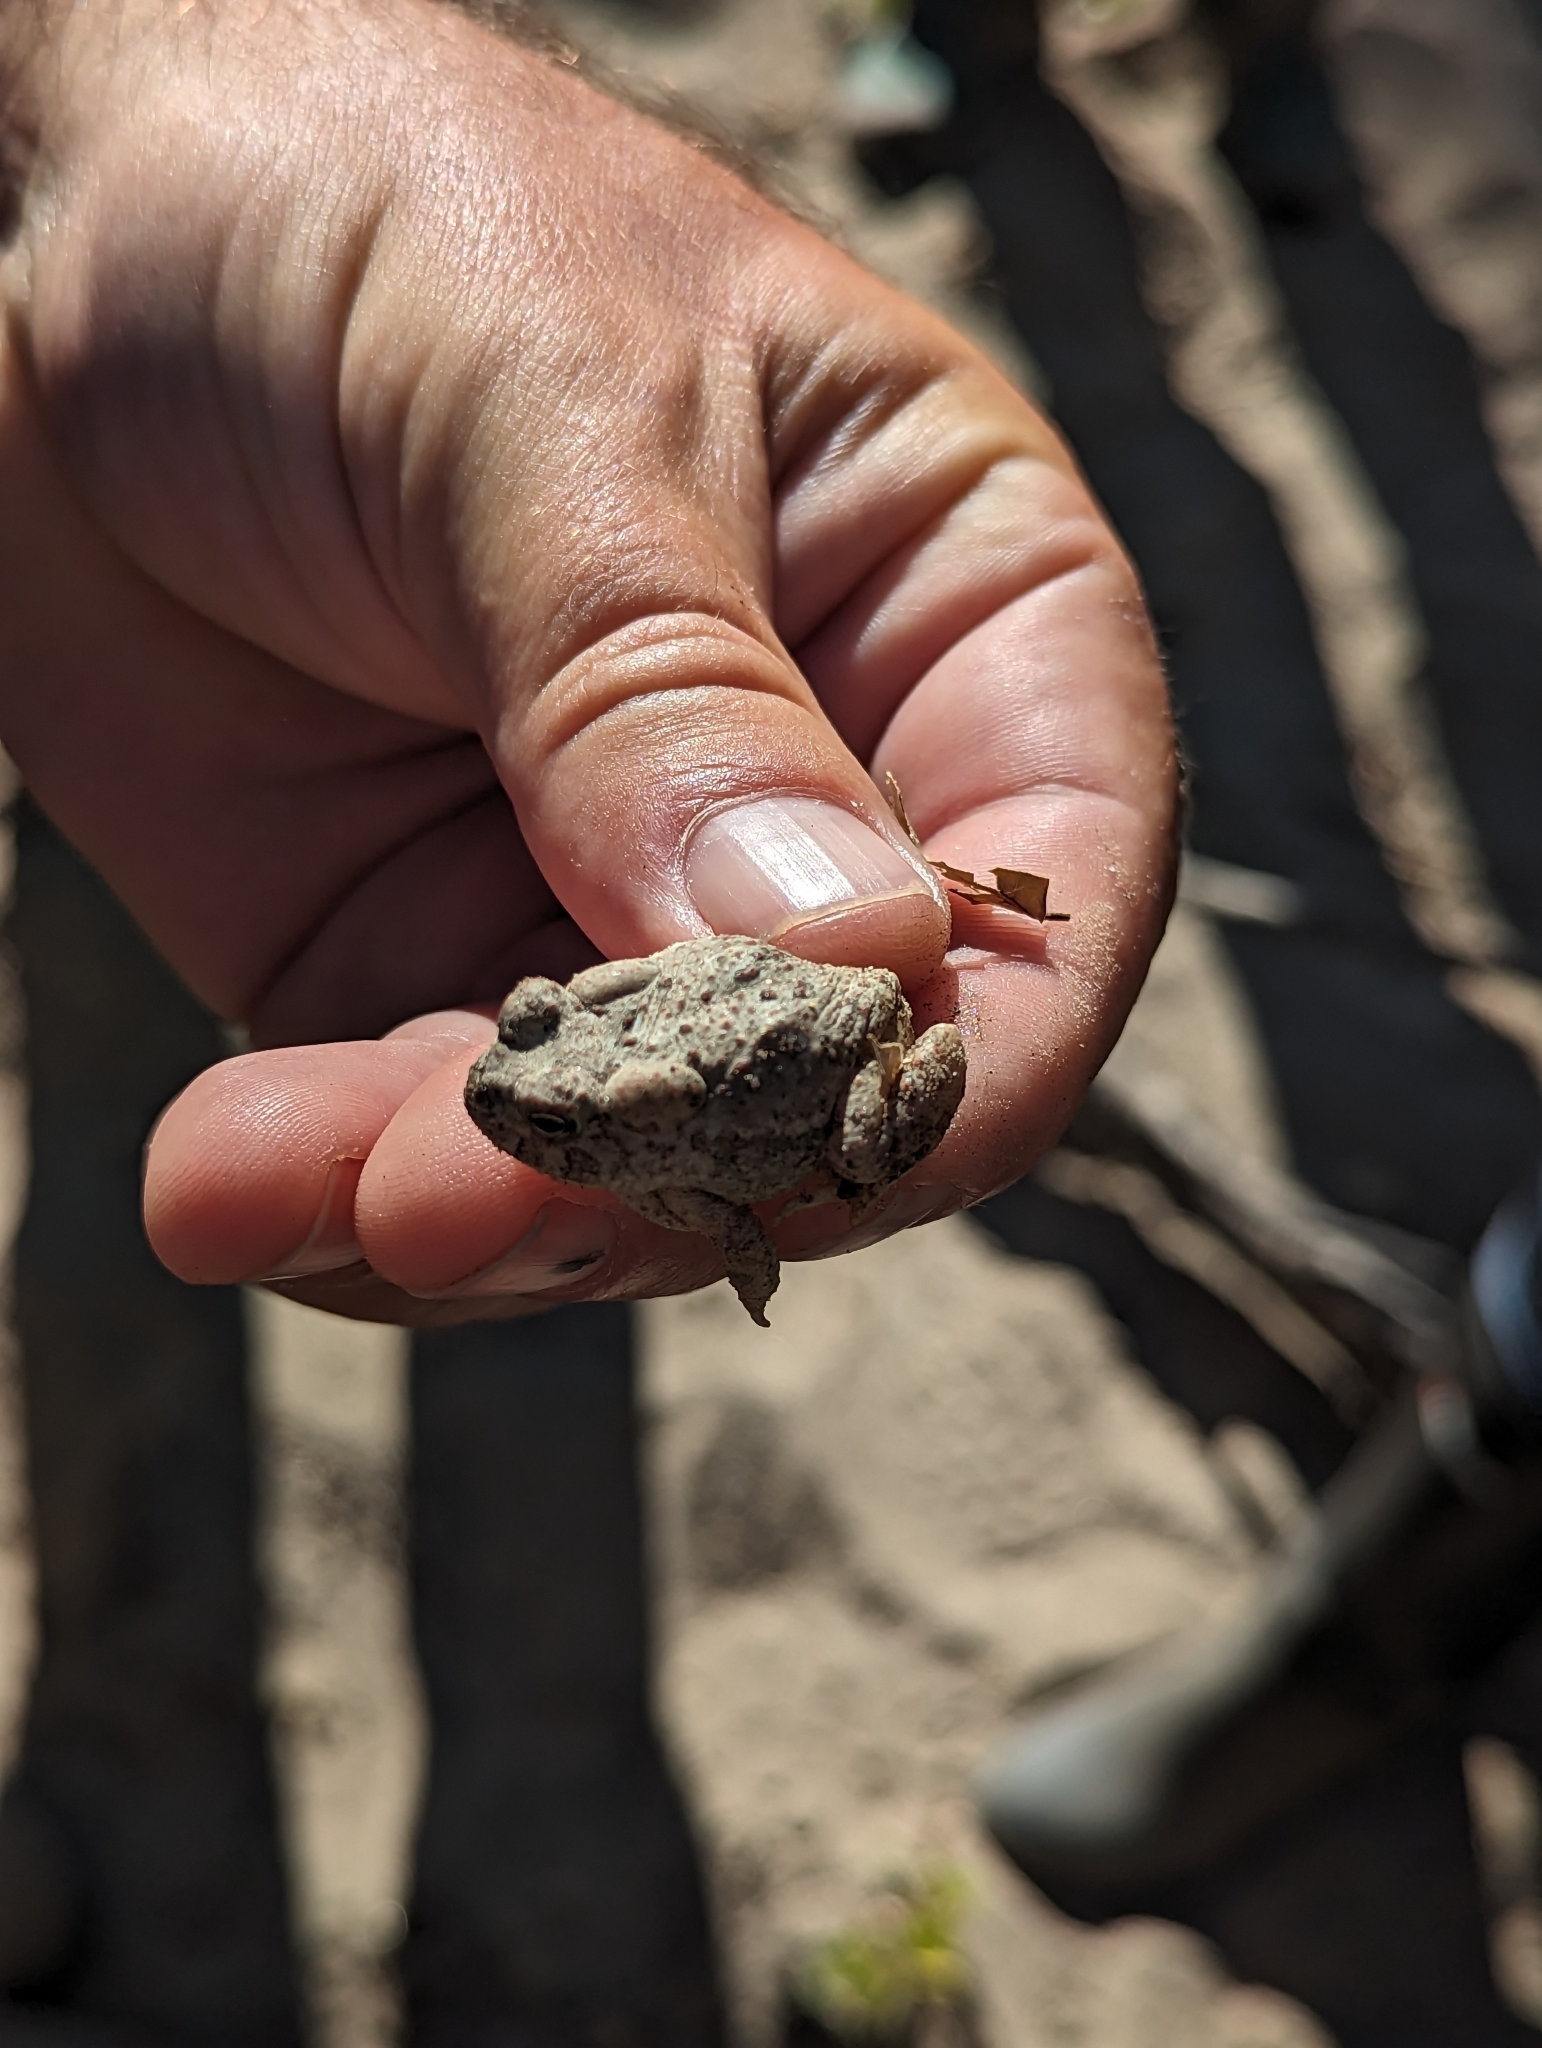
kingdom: Animalia
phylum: Chordata
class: Amphibia
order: Anura
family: Bufonidae
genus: Anaxyrus
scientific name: Anaxyrus microscaphus
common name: Arizona toad
